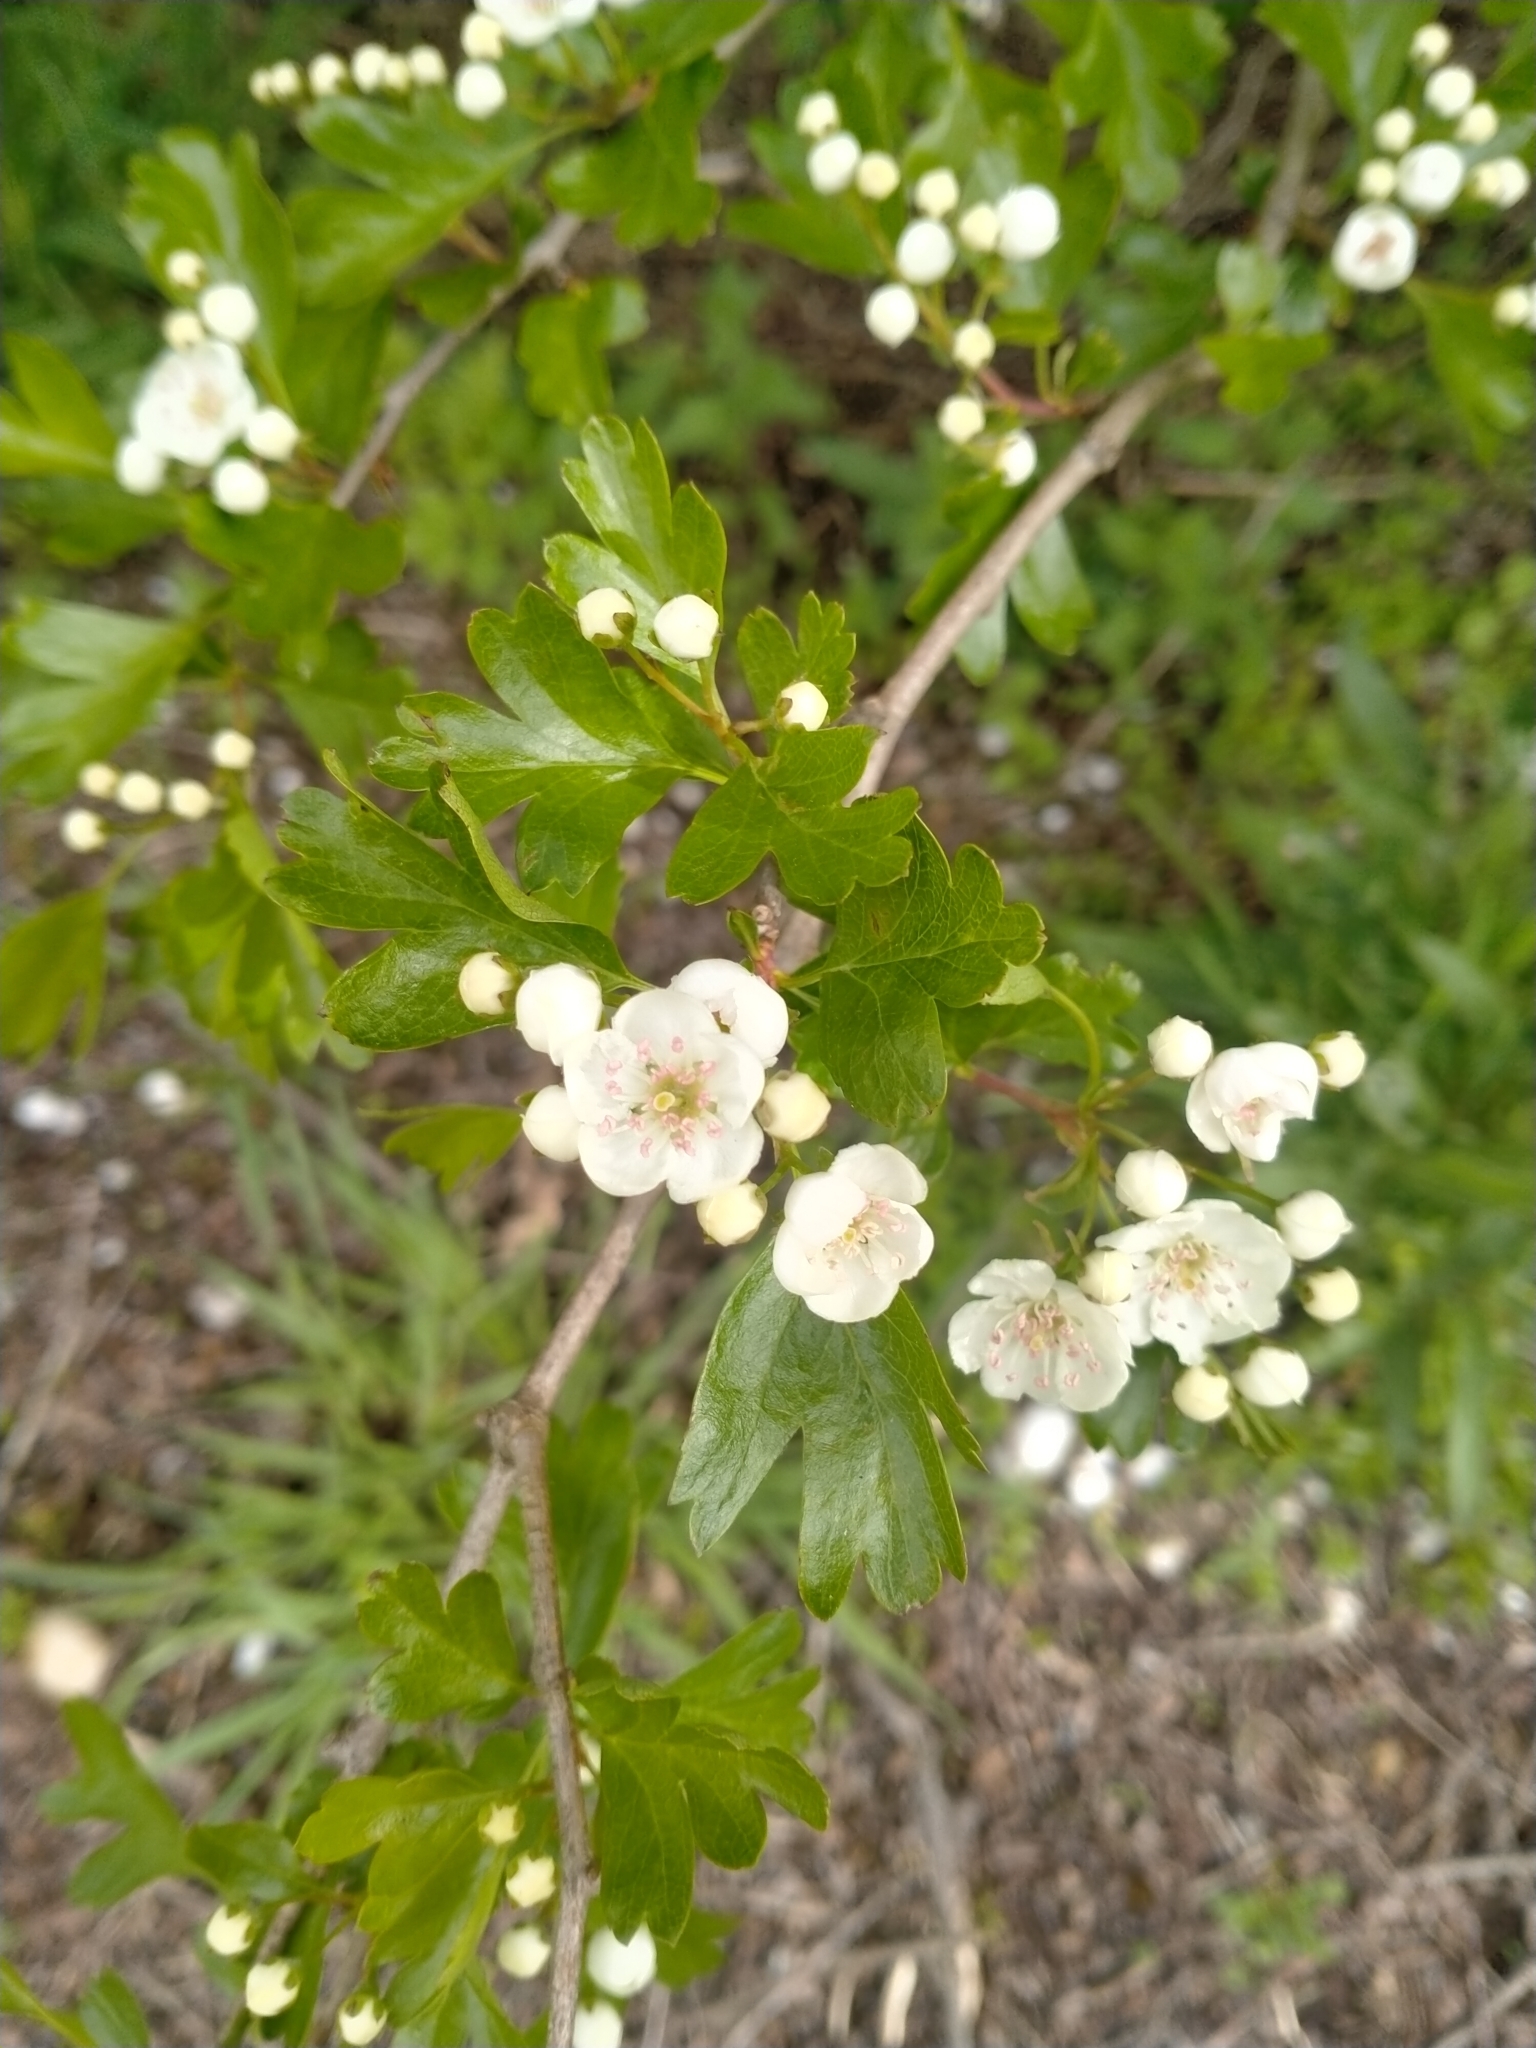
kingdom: Plantae
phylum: Tracheophyta
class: Magnoliopsida
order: Rosales
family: Rosaceae
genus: Crataegus
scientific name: Crataegus monogyna
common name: Hawthorn
